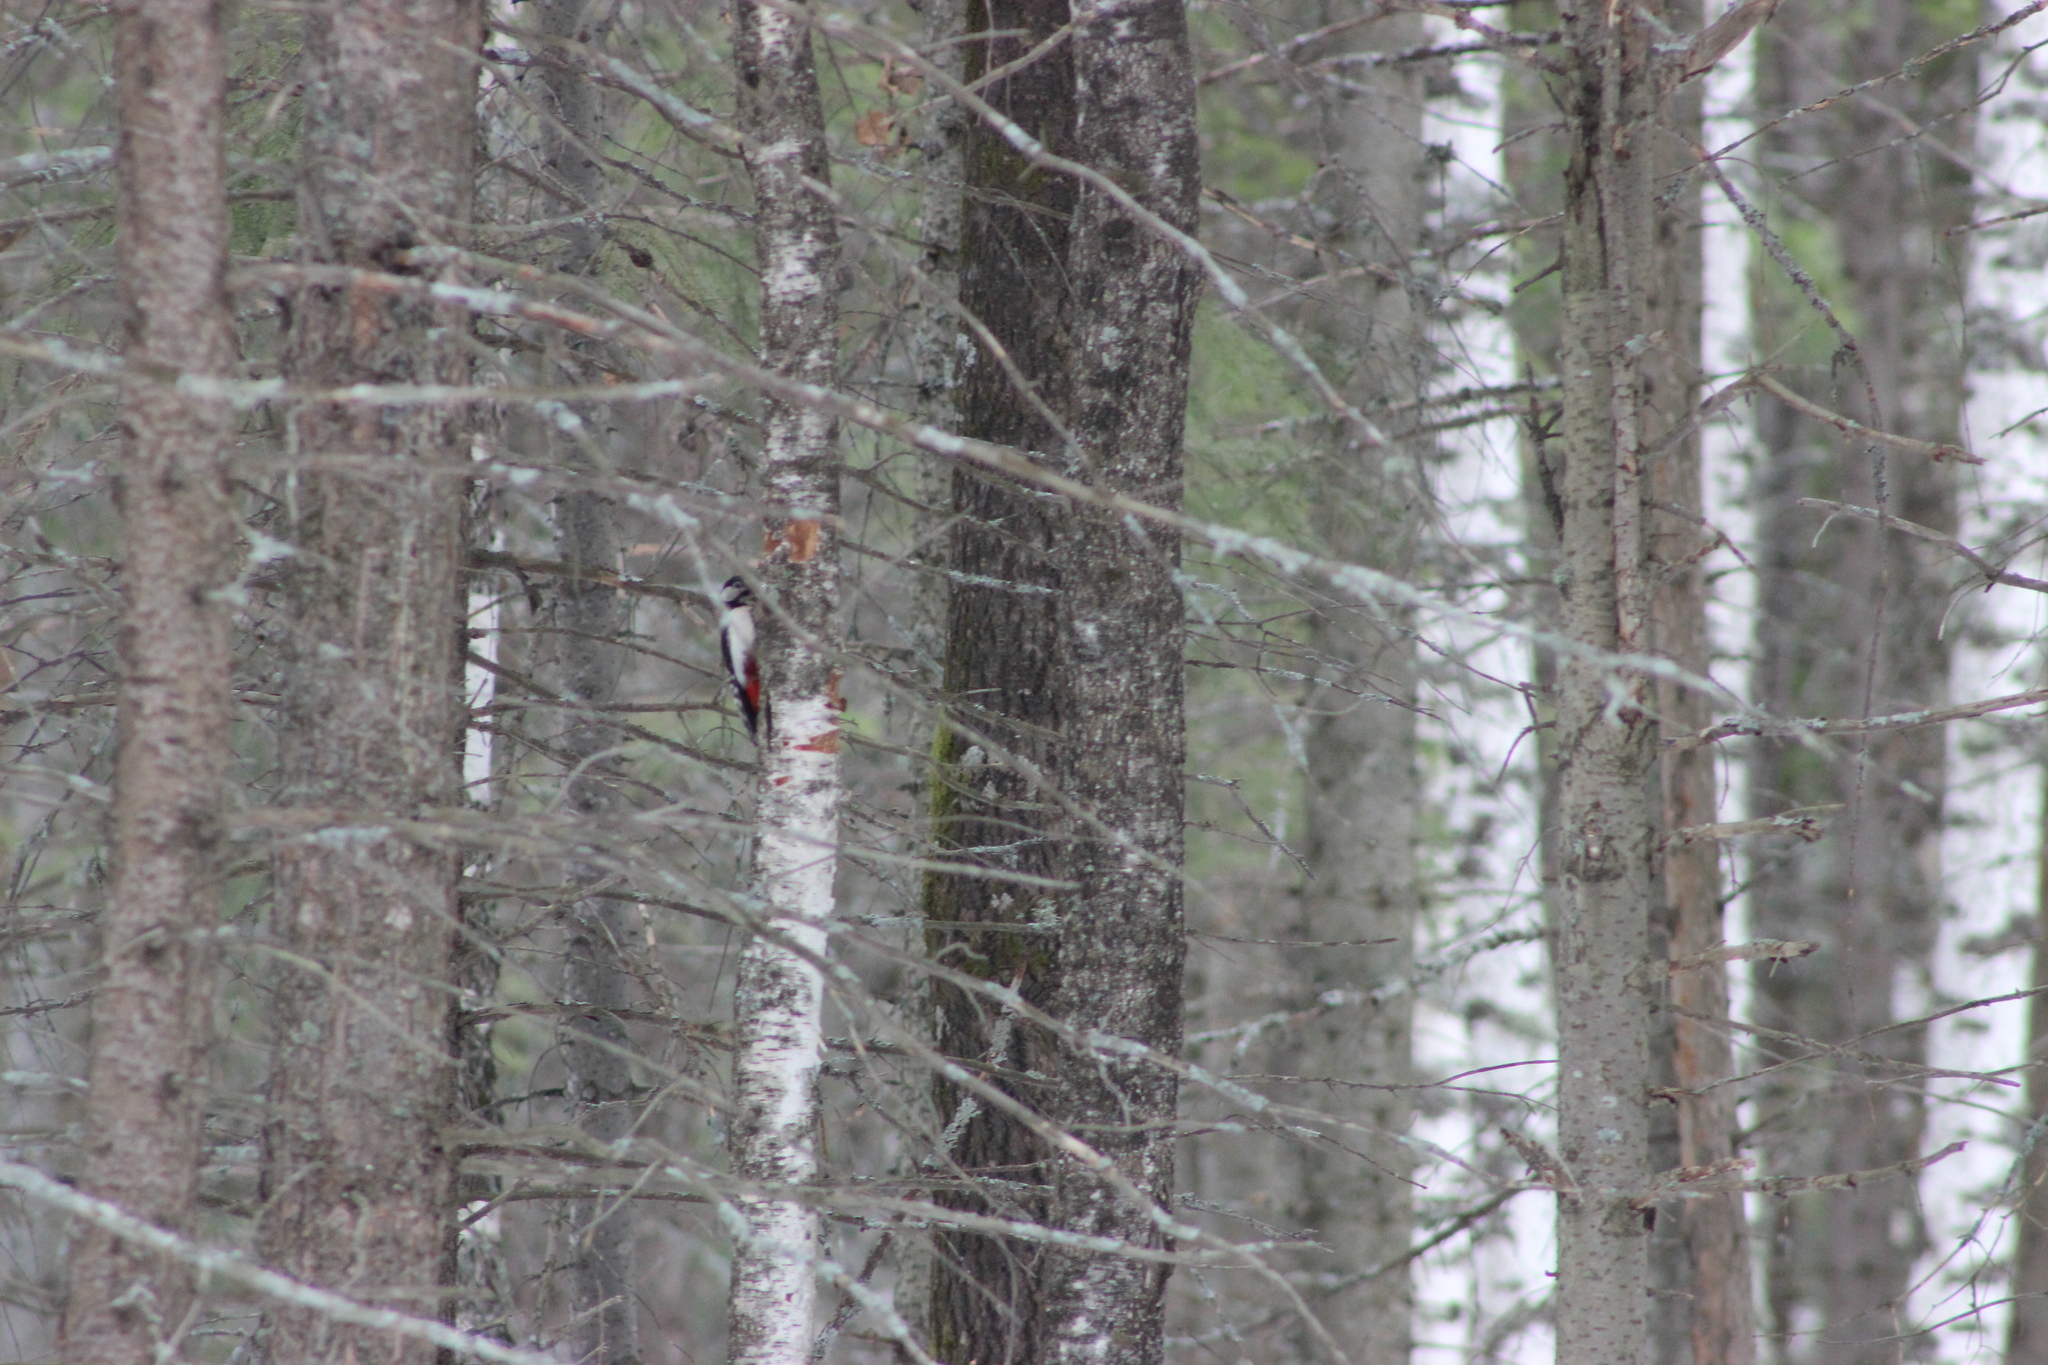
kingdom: Animalia
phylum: Chordata
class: Aves
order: Piciformes
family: Picidae
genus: Dendrocopos
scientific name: Dendrocopos major
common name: Great spotted woodpecker
